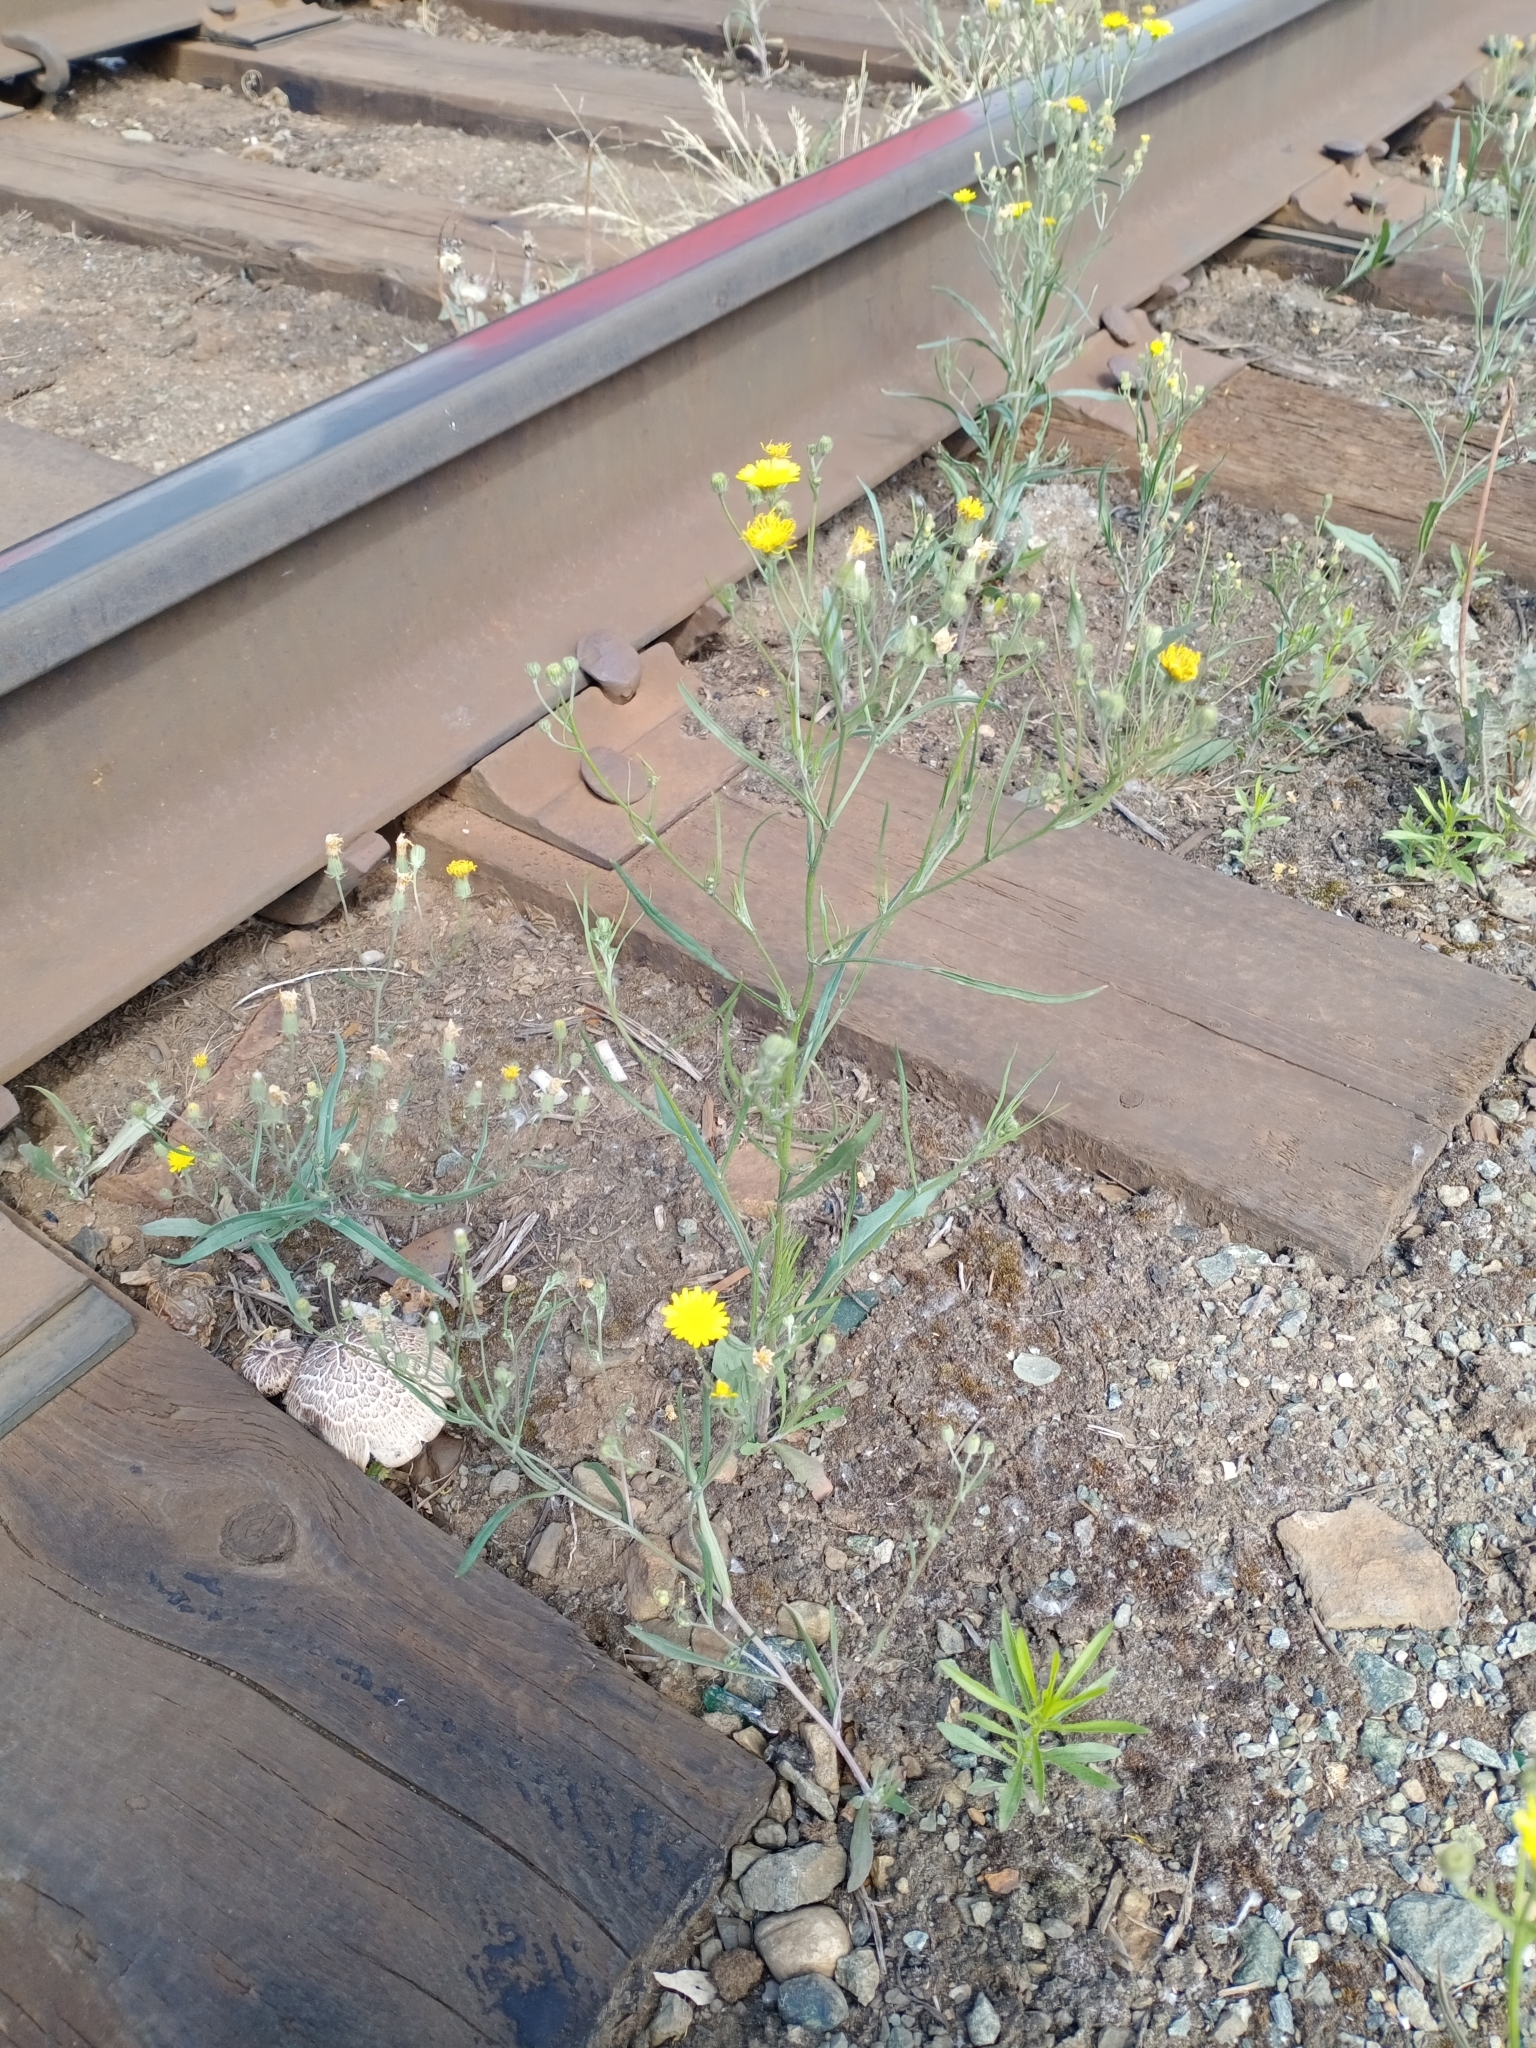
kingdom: Plantae
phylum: Tracheophyta
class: Magnoliopsida
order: Asterales
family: Asteraceae
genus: Crepis
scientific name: Crepis tectorum
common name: Narrow-leaved hawk's-beard
